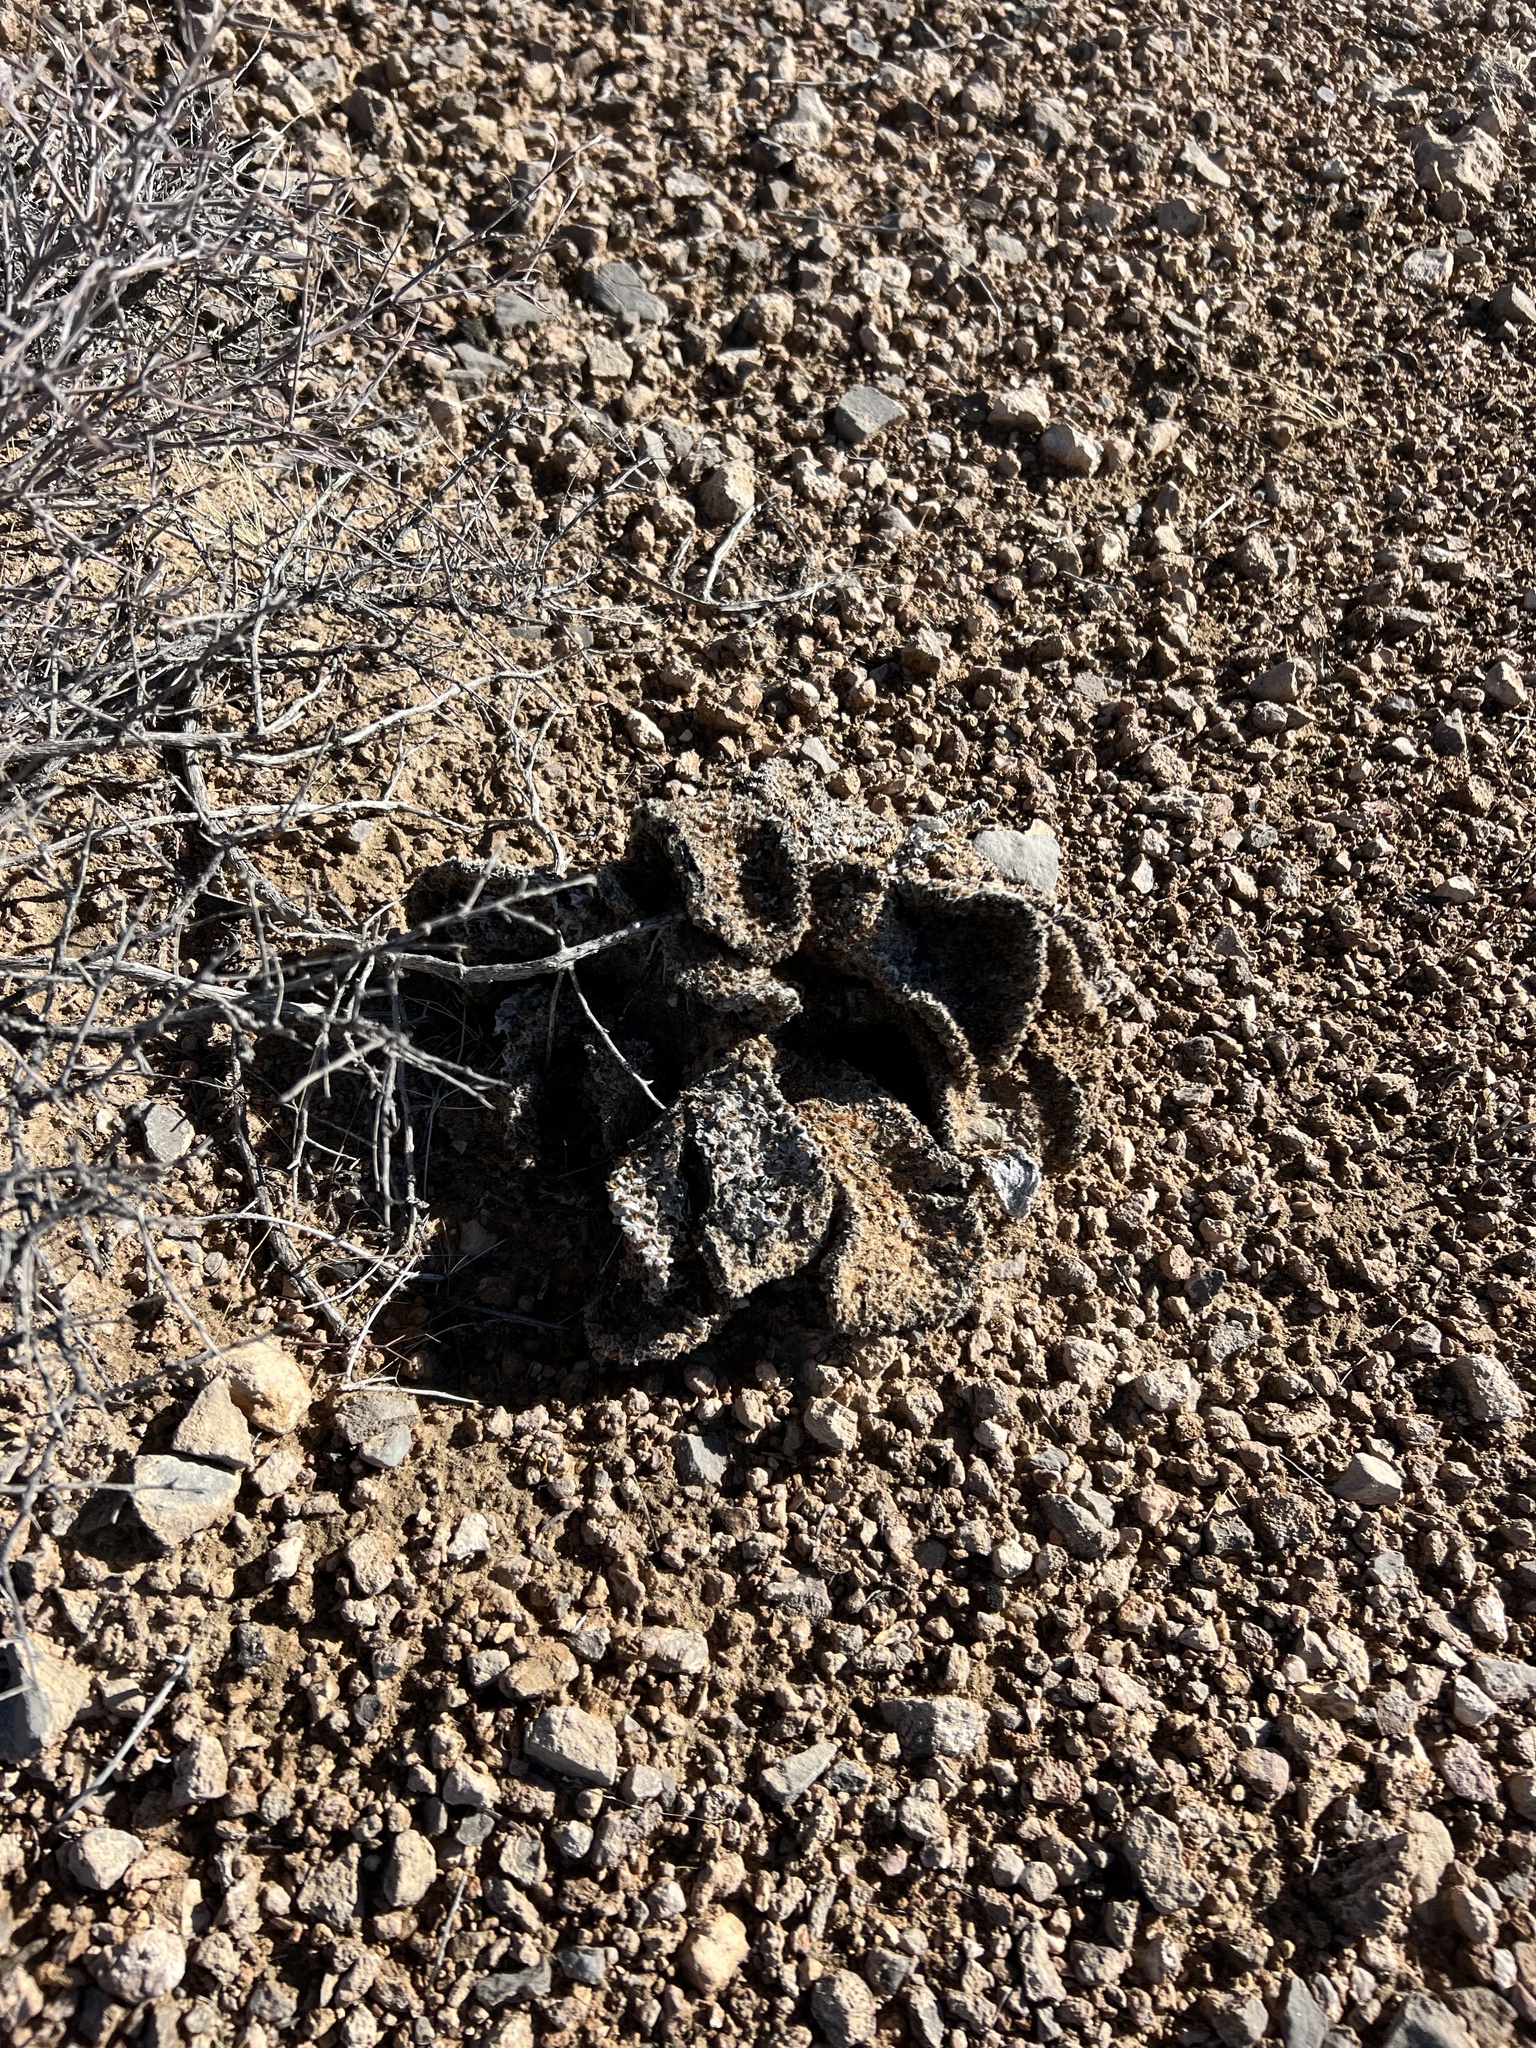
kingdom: Plantae
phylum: Tracheophyta
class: Magnoliopsida
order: Caryophyllales
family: Cactaceae
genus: Opuntia
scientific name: Opuntia basilaris
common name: Beavertail prickly-pear
